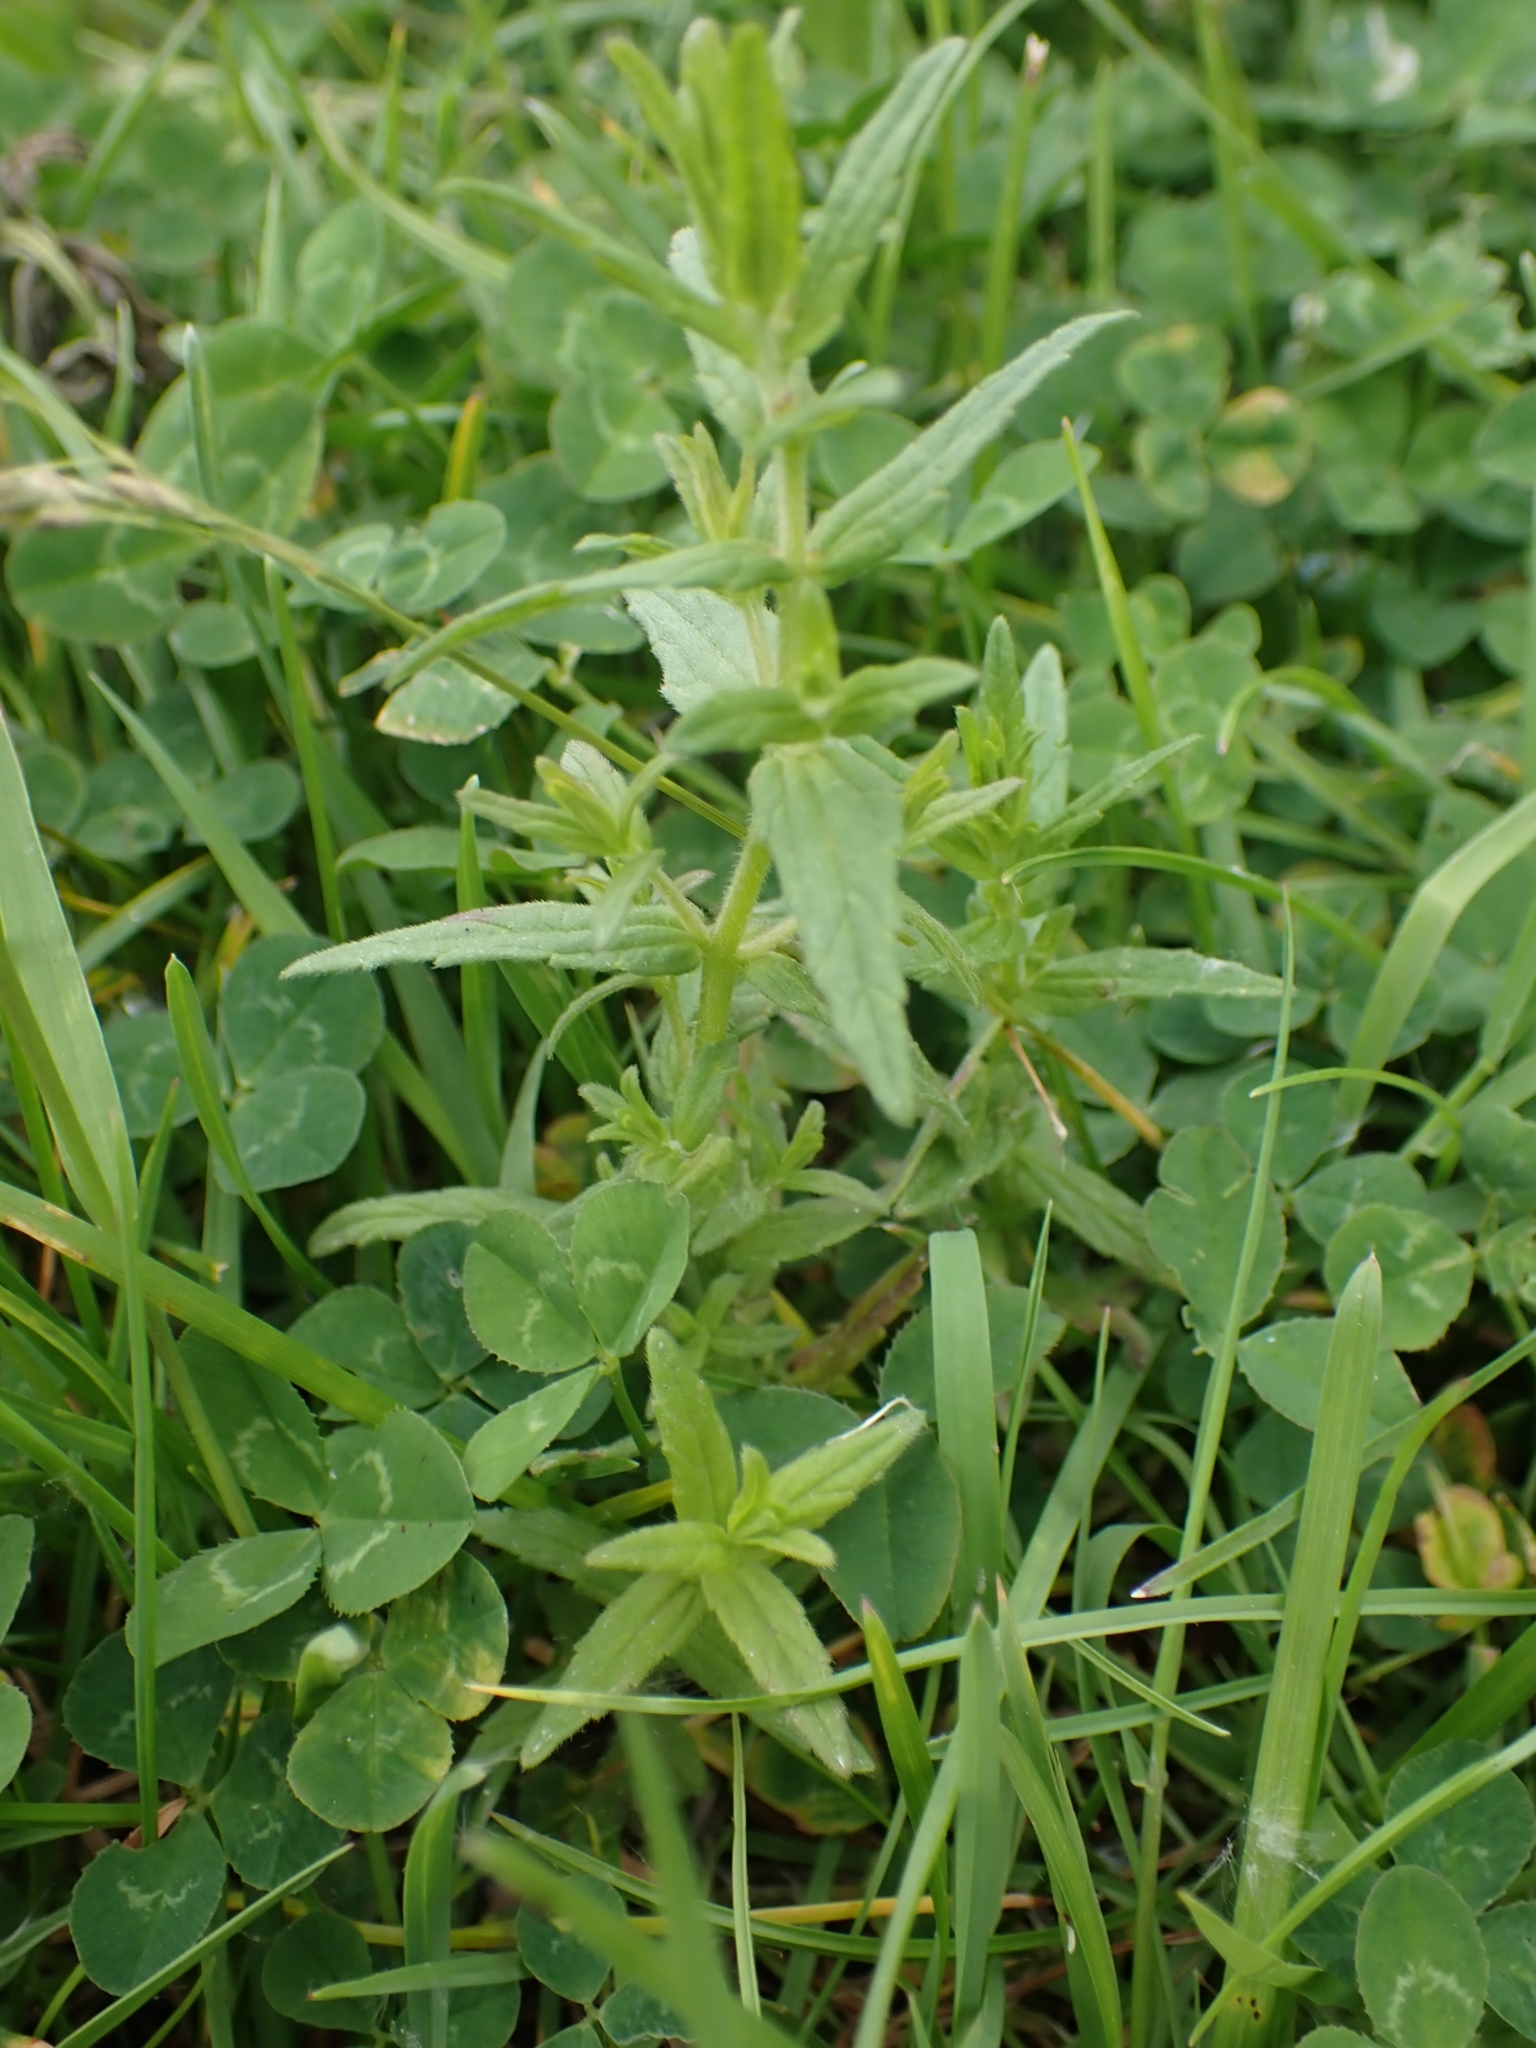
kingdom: Plantae
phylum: Tracheophyta
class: Magnoliopsida
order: Lamiales
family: Orobanchaceae
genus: Odontites
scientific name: Odontites vernus
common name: Red bartsia
